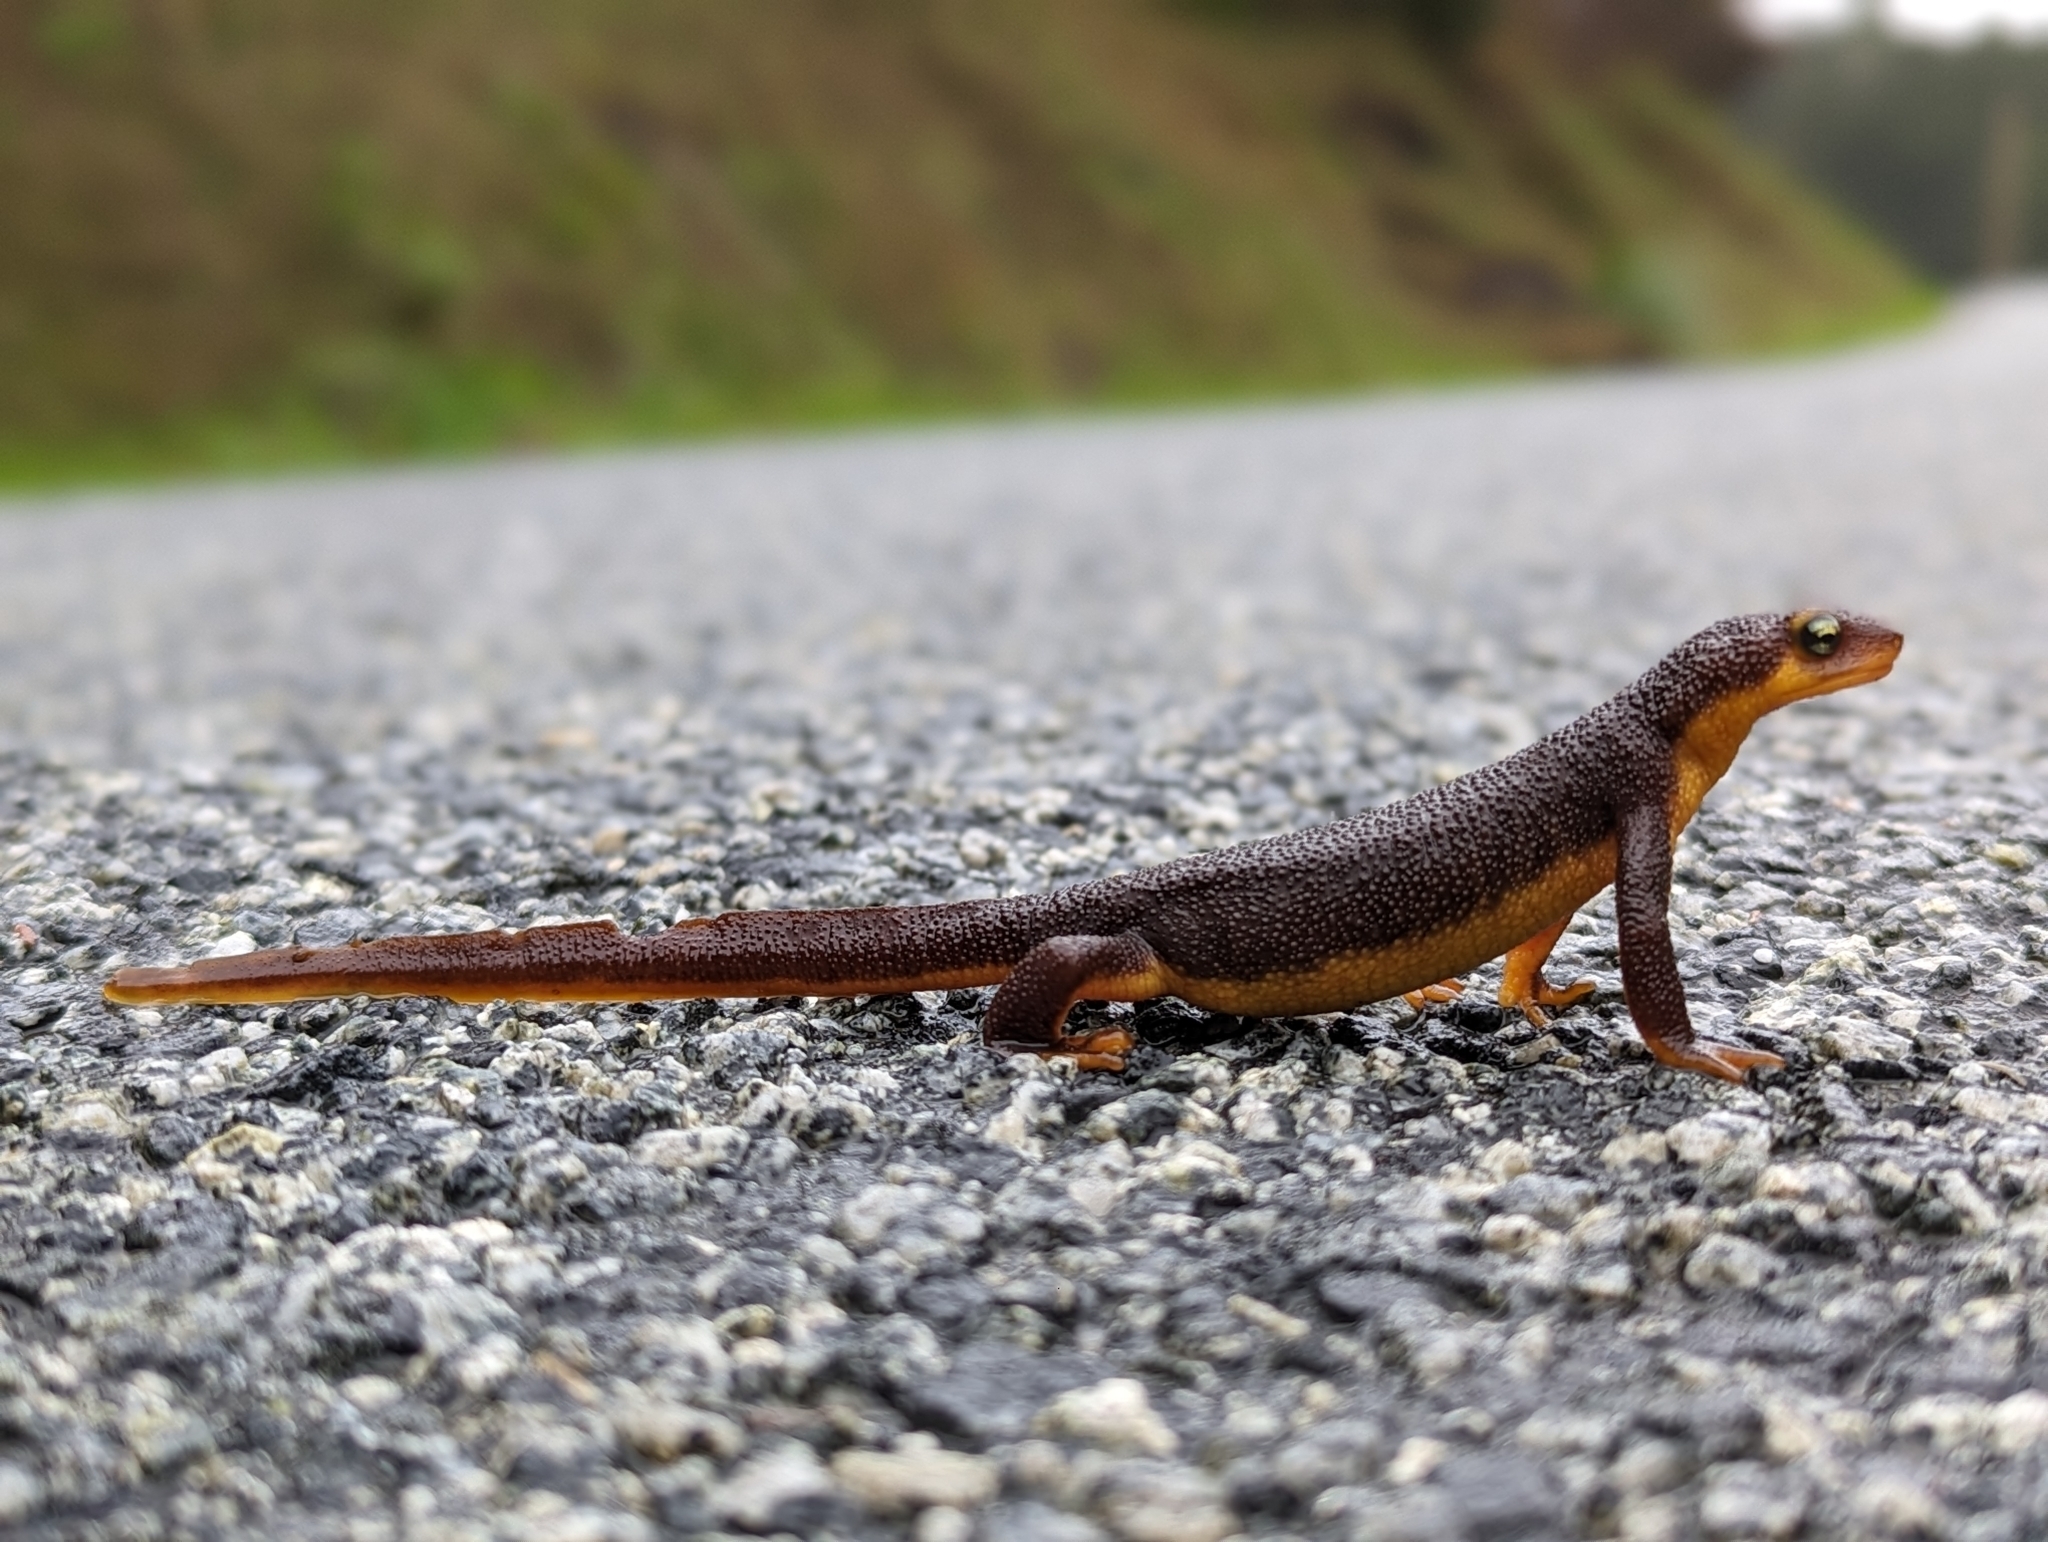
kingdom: Animalia
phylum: Chordata
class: Amphibia
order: Caudata
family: Salamandridae
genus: Taricha
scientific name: Taricha torosa
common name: California newt
